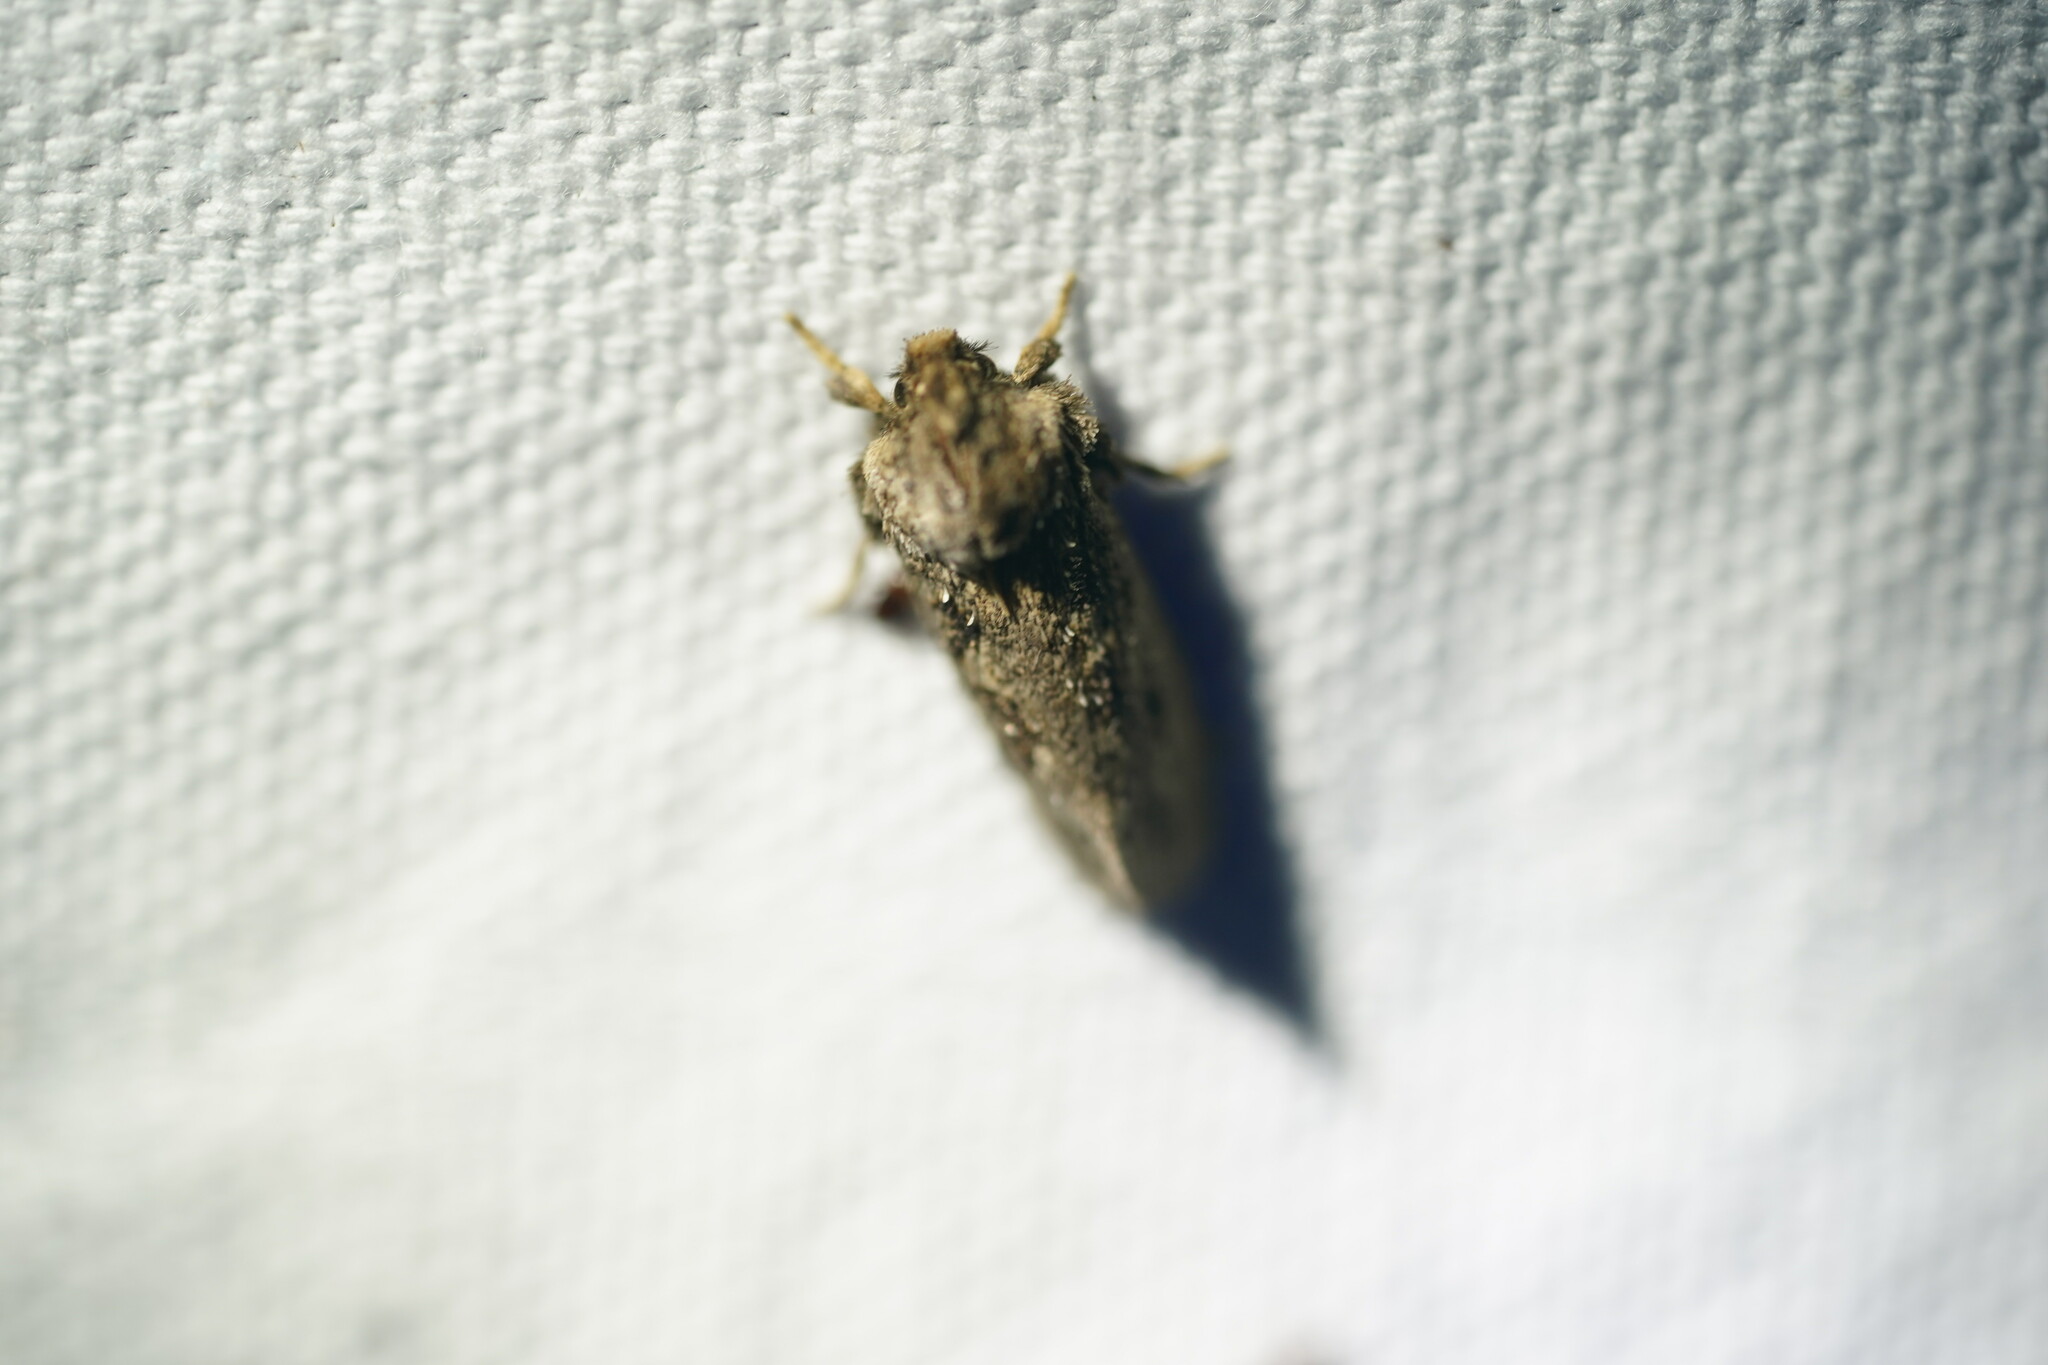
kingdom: Animalia
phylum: Arthropoda
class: Insecta
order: Lepidoptera
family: Tineidae
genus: Acrolophus
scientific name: Acrolophus arcanella
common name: Arcane grass tubeworm moth
